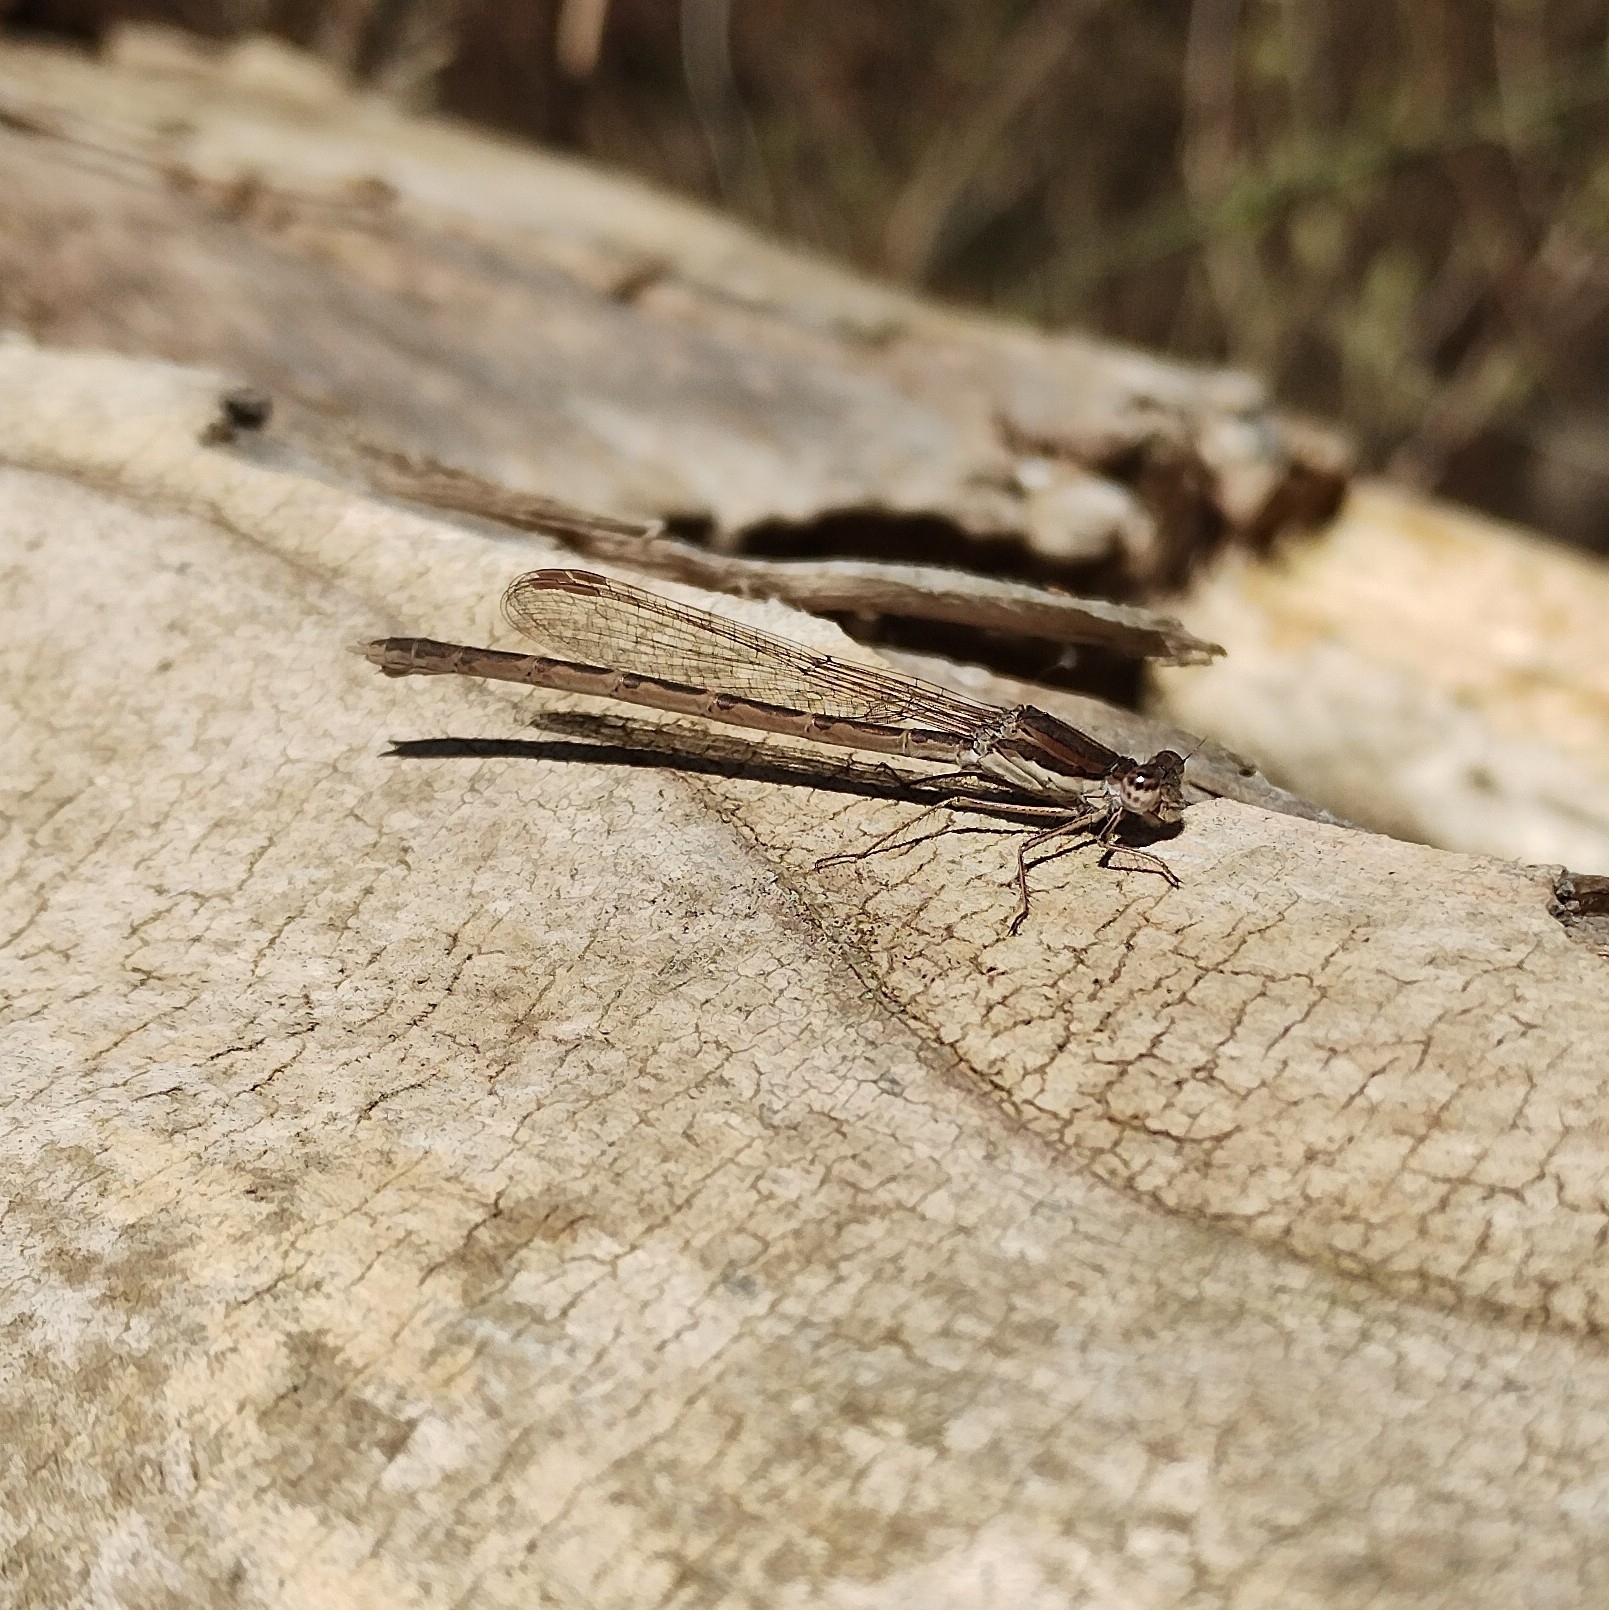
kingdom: Animalia
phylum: Arthropoda
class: Insecta
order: Odonata
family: Lestidae
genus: Sympecma
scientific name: Sympecma fusca
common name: Common winter damsel
